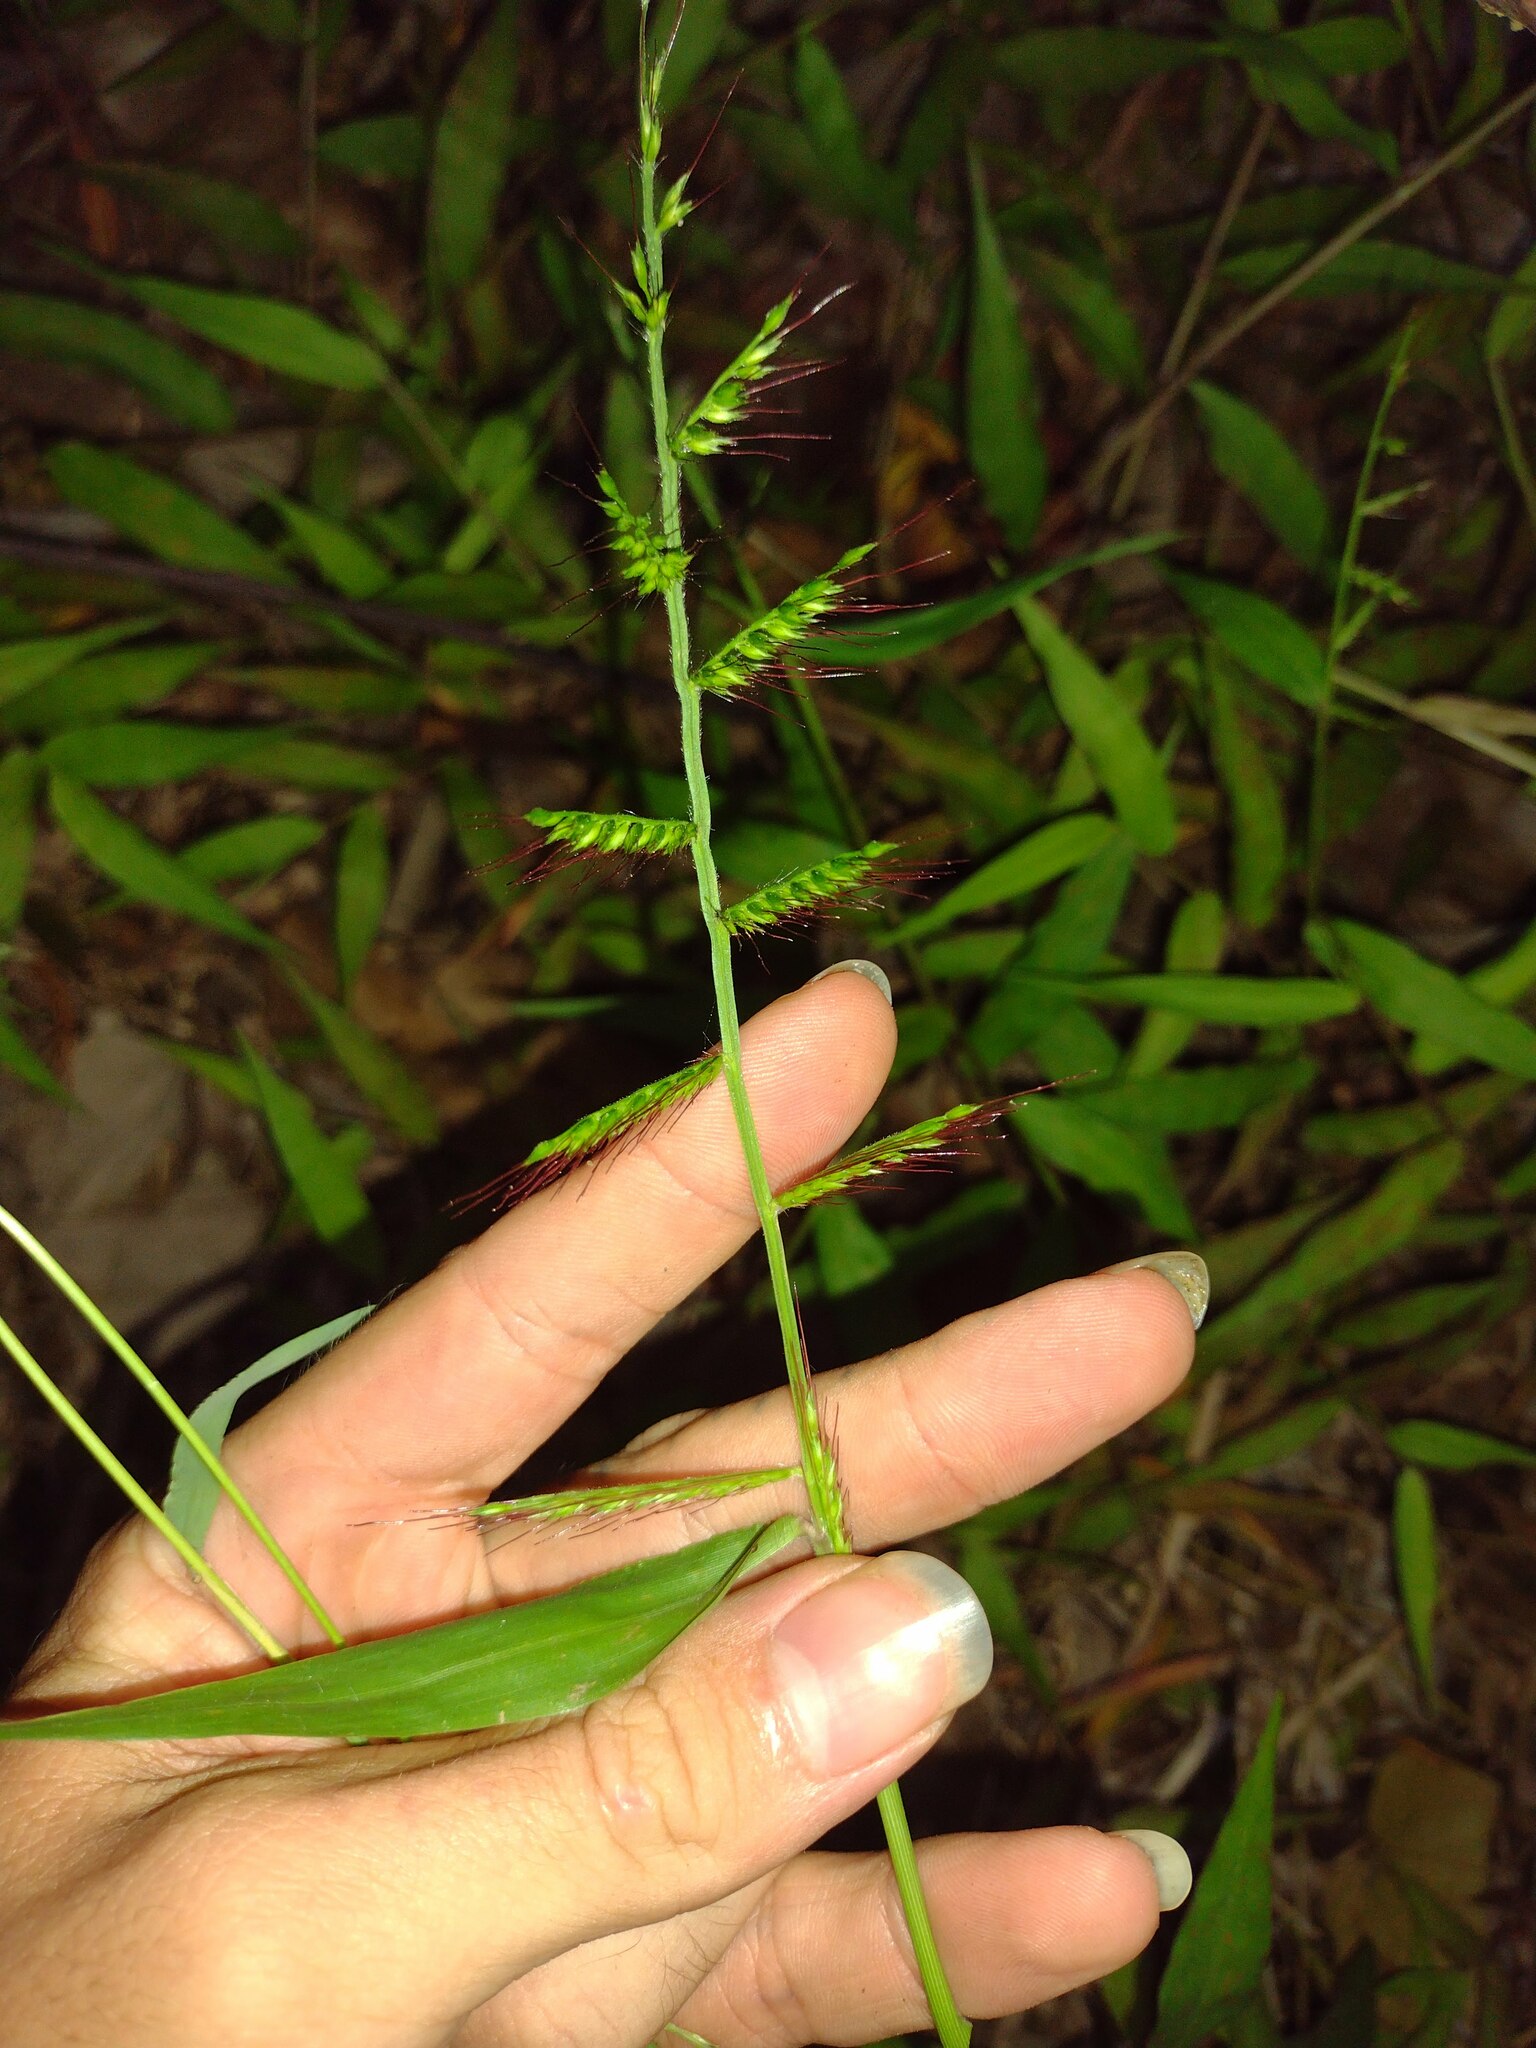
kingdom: Plantae
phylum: Tracheophyta
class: Liliopsida
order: Poales
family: Poaceae
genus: Oplismenus
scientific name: Oplismenus hirtellus
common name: Basketgrass
